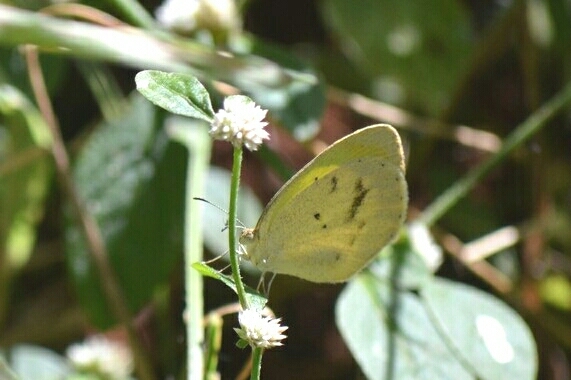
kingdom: Animalia
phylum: Arthropoda
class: Insecta
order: Lepidoptera
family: Pieridae
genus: Eurema
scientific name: Eurema elathea
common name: Banded yellow
